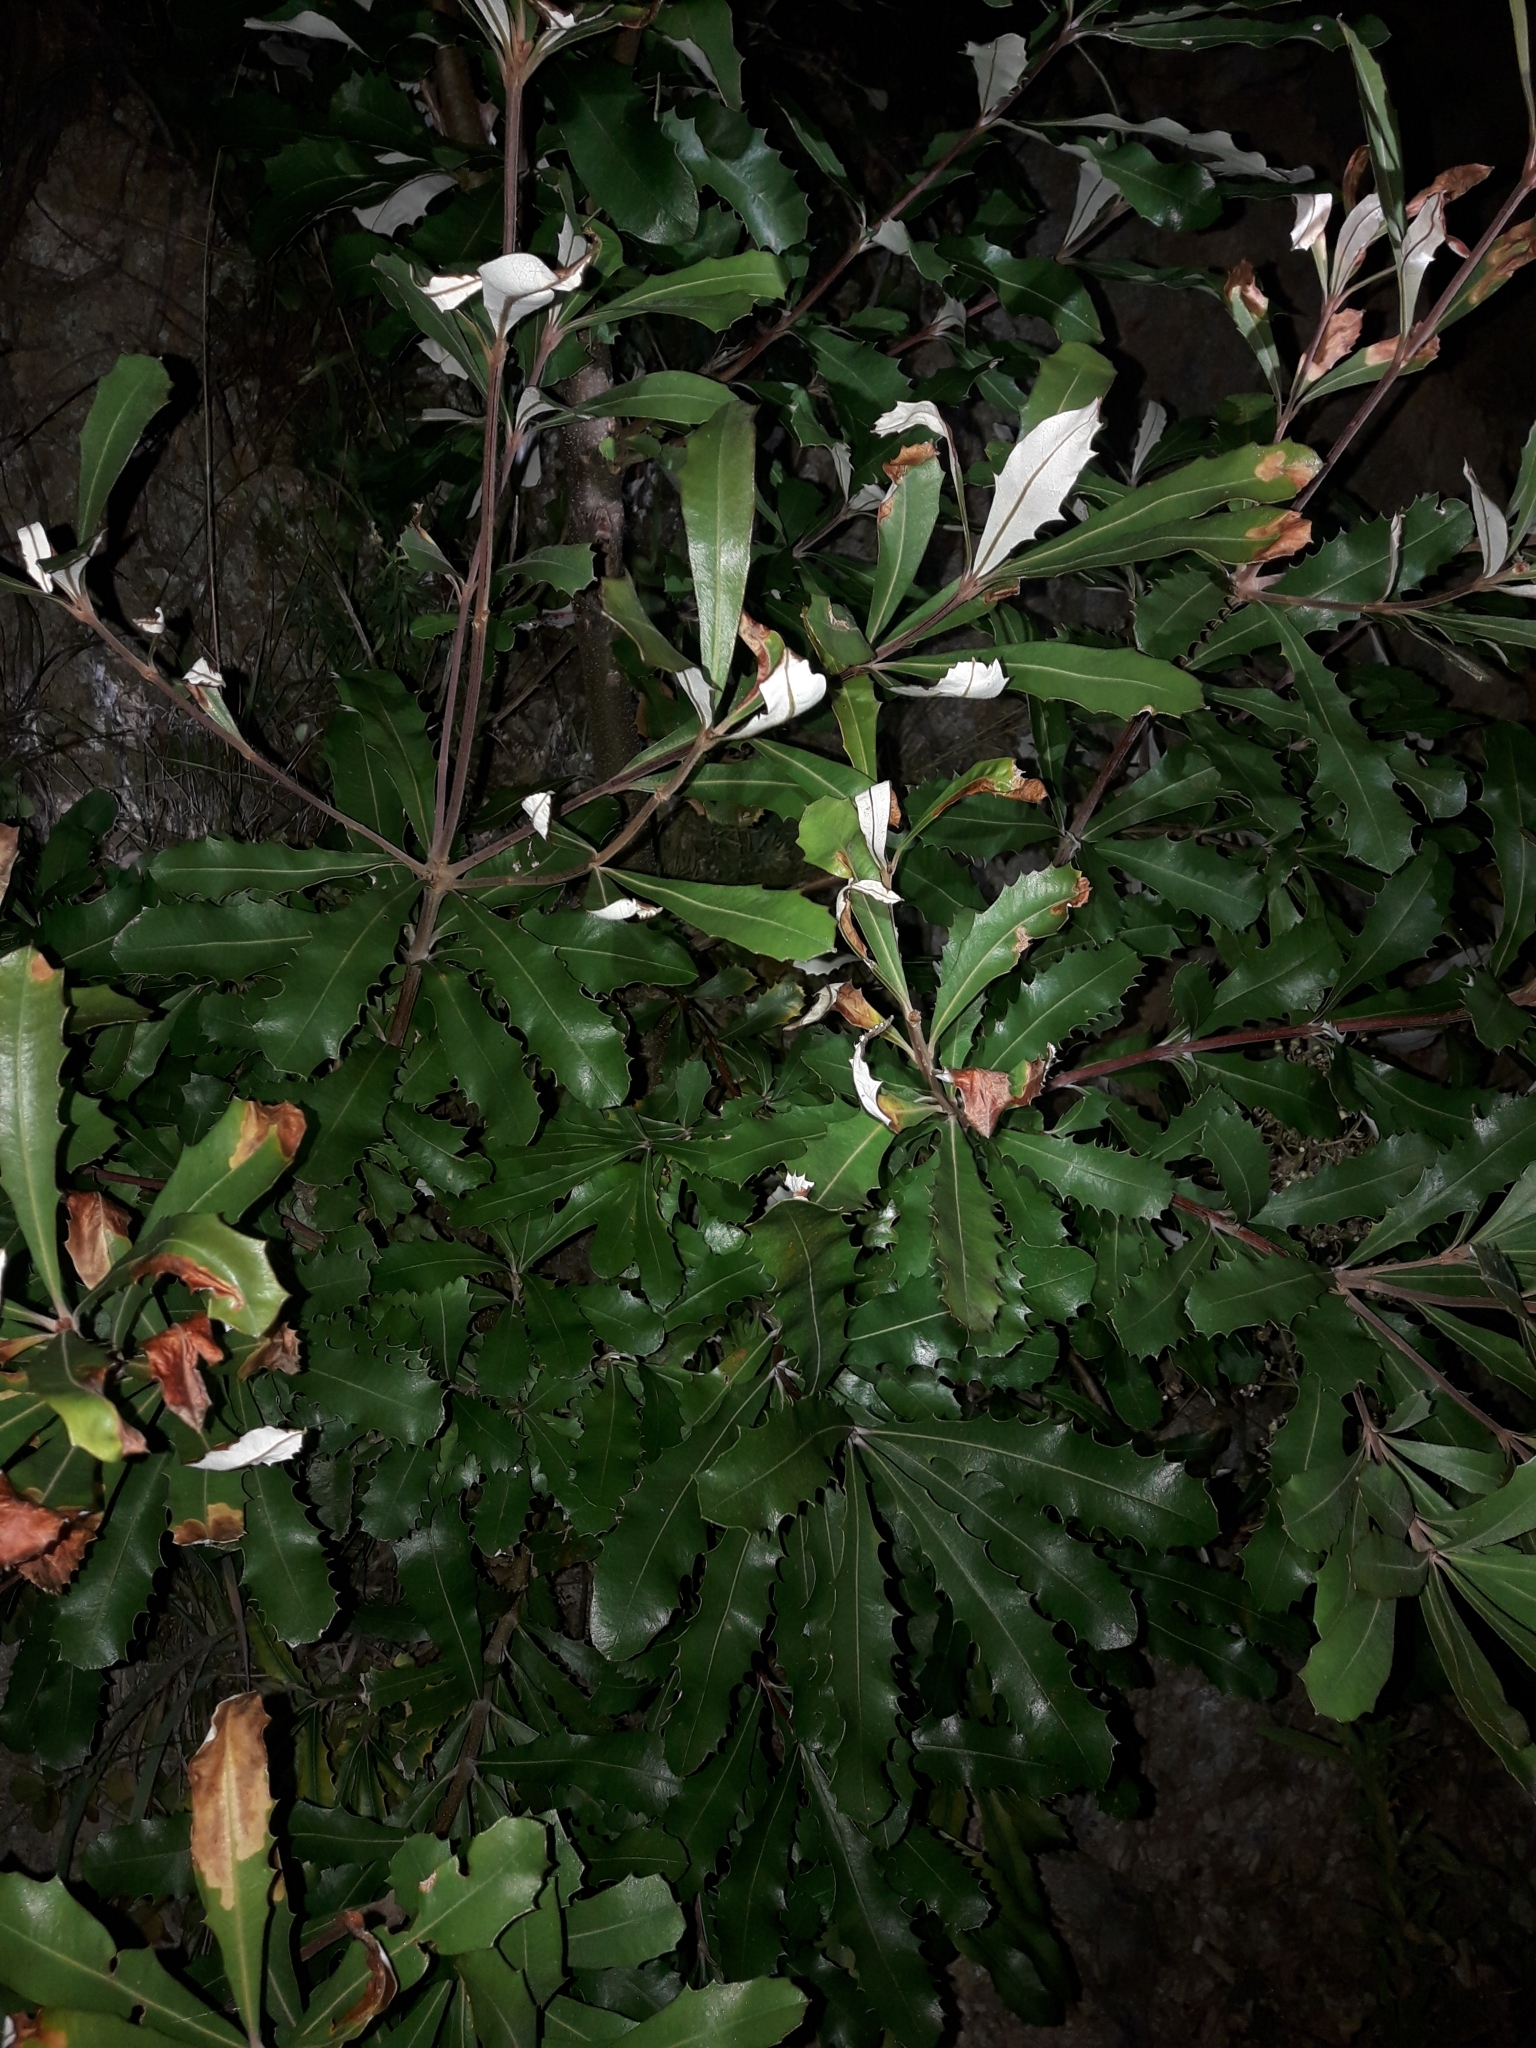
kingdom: Plantae
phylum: Tracheophyta
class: Magnoliopsida
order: Proteales
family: Proteaceae
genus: Banksia
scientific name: Banksia integrifolia
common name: White-honeysuckle
